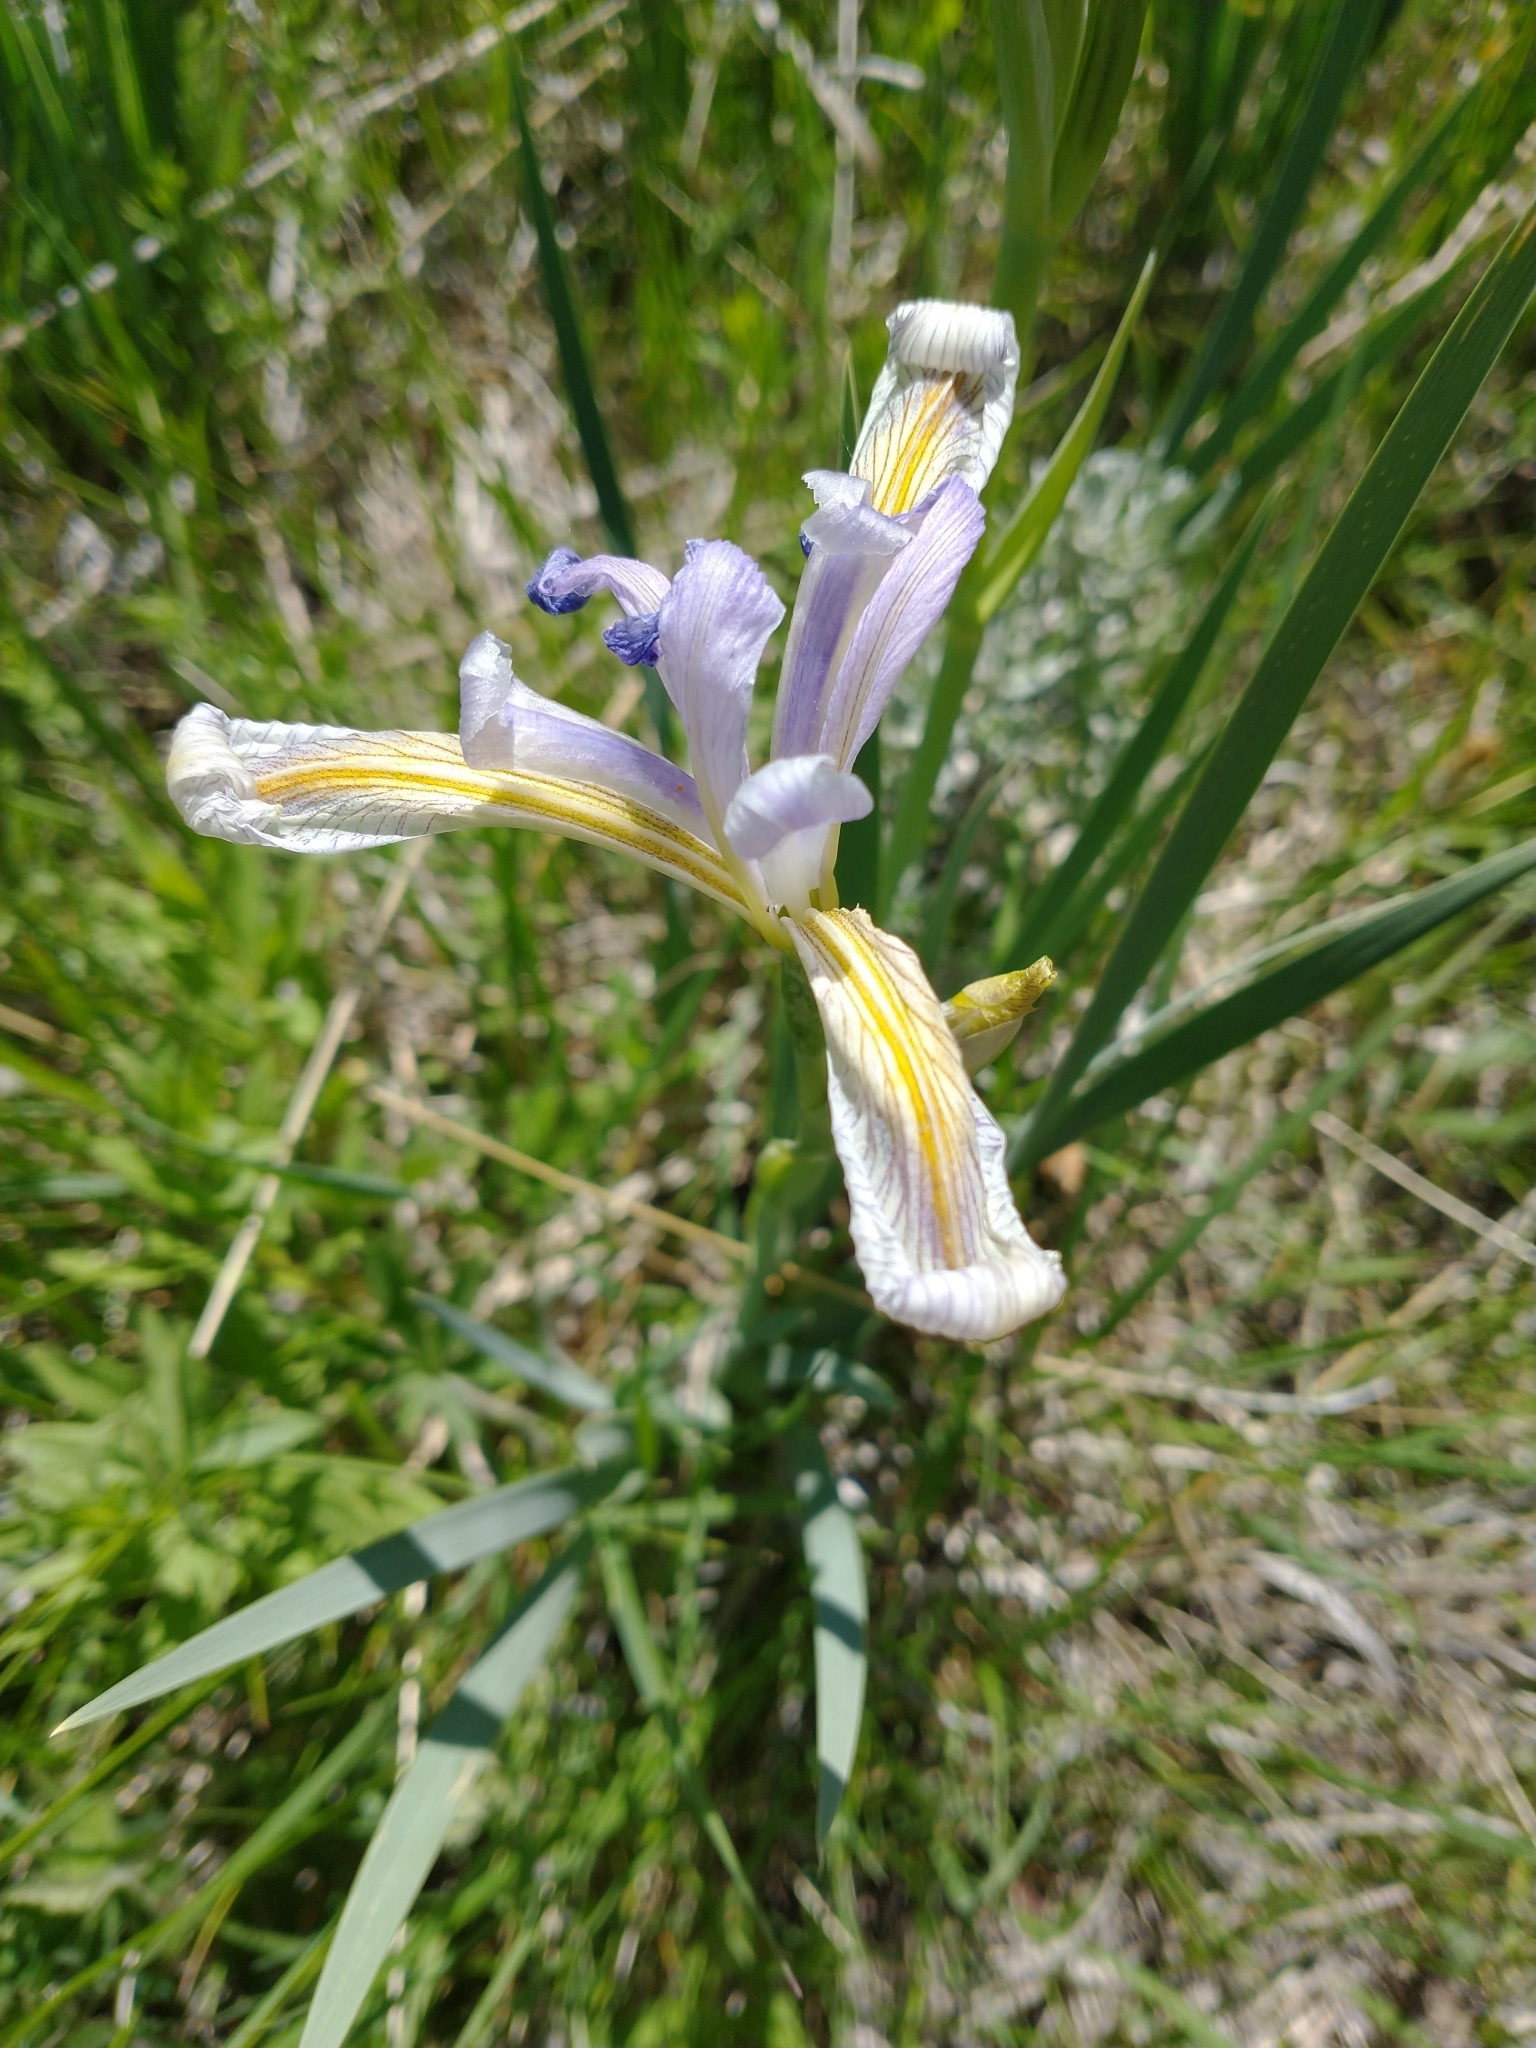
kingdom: Plantae
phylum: Tracheophyta
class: Liliopsida
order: Asparagales
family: Iridaceae
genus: Iris
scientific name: Iris missouriensis
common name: Rocky mountain iris
